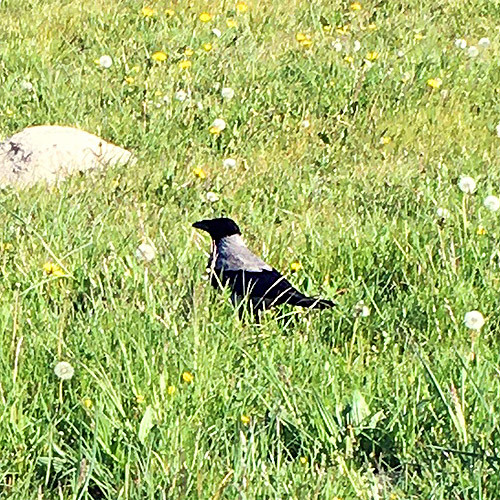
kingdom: Animalia
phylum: Chordata
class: Aves
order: Passeriformes
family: Corvidae
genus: Corvus
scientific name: Corvus cornix
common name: Hooded crow
